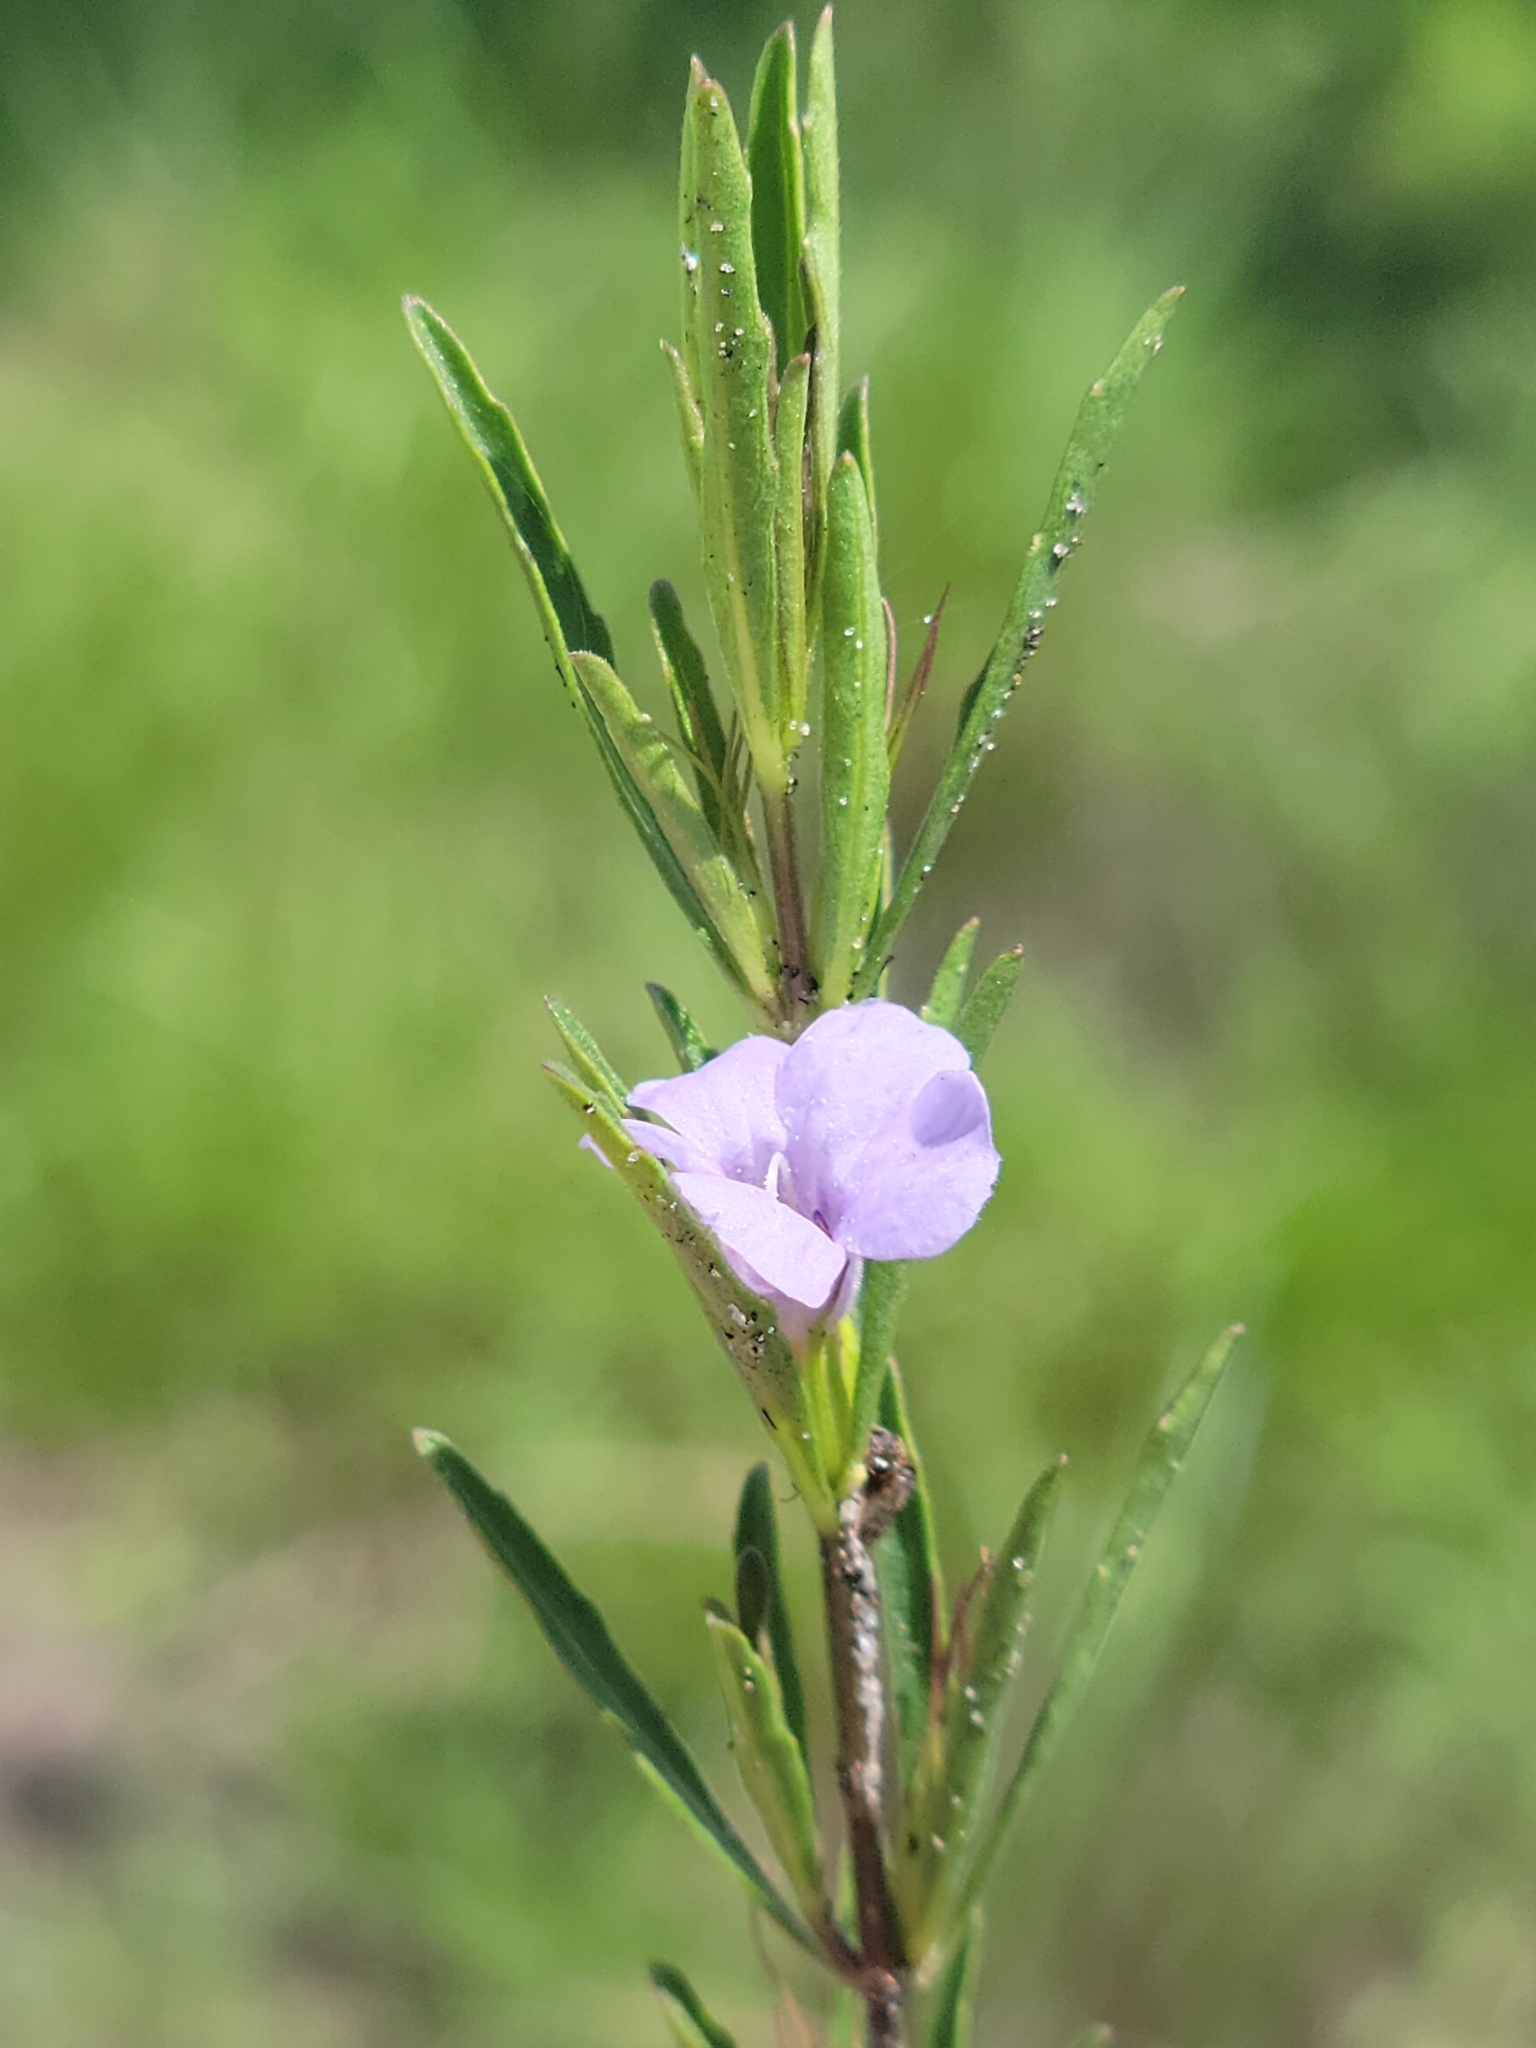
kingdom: Plantae
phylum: Tracheophyta
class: Magnoliopsida
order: Lamiales
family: Acanthaceae
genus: Dyschoriste
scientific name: Dyschoriste angusta
